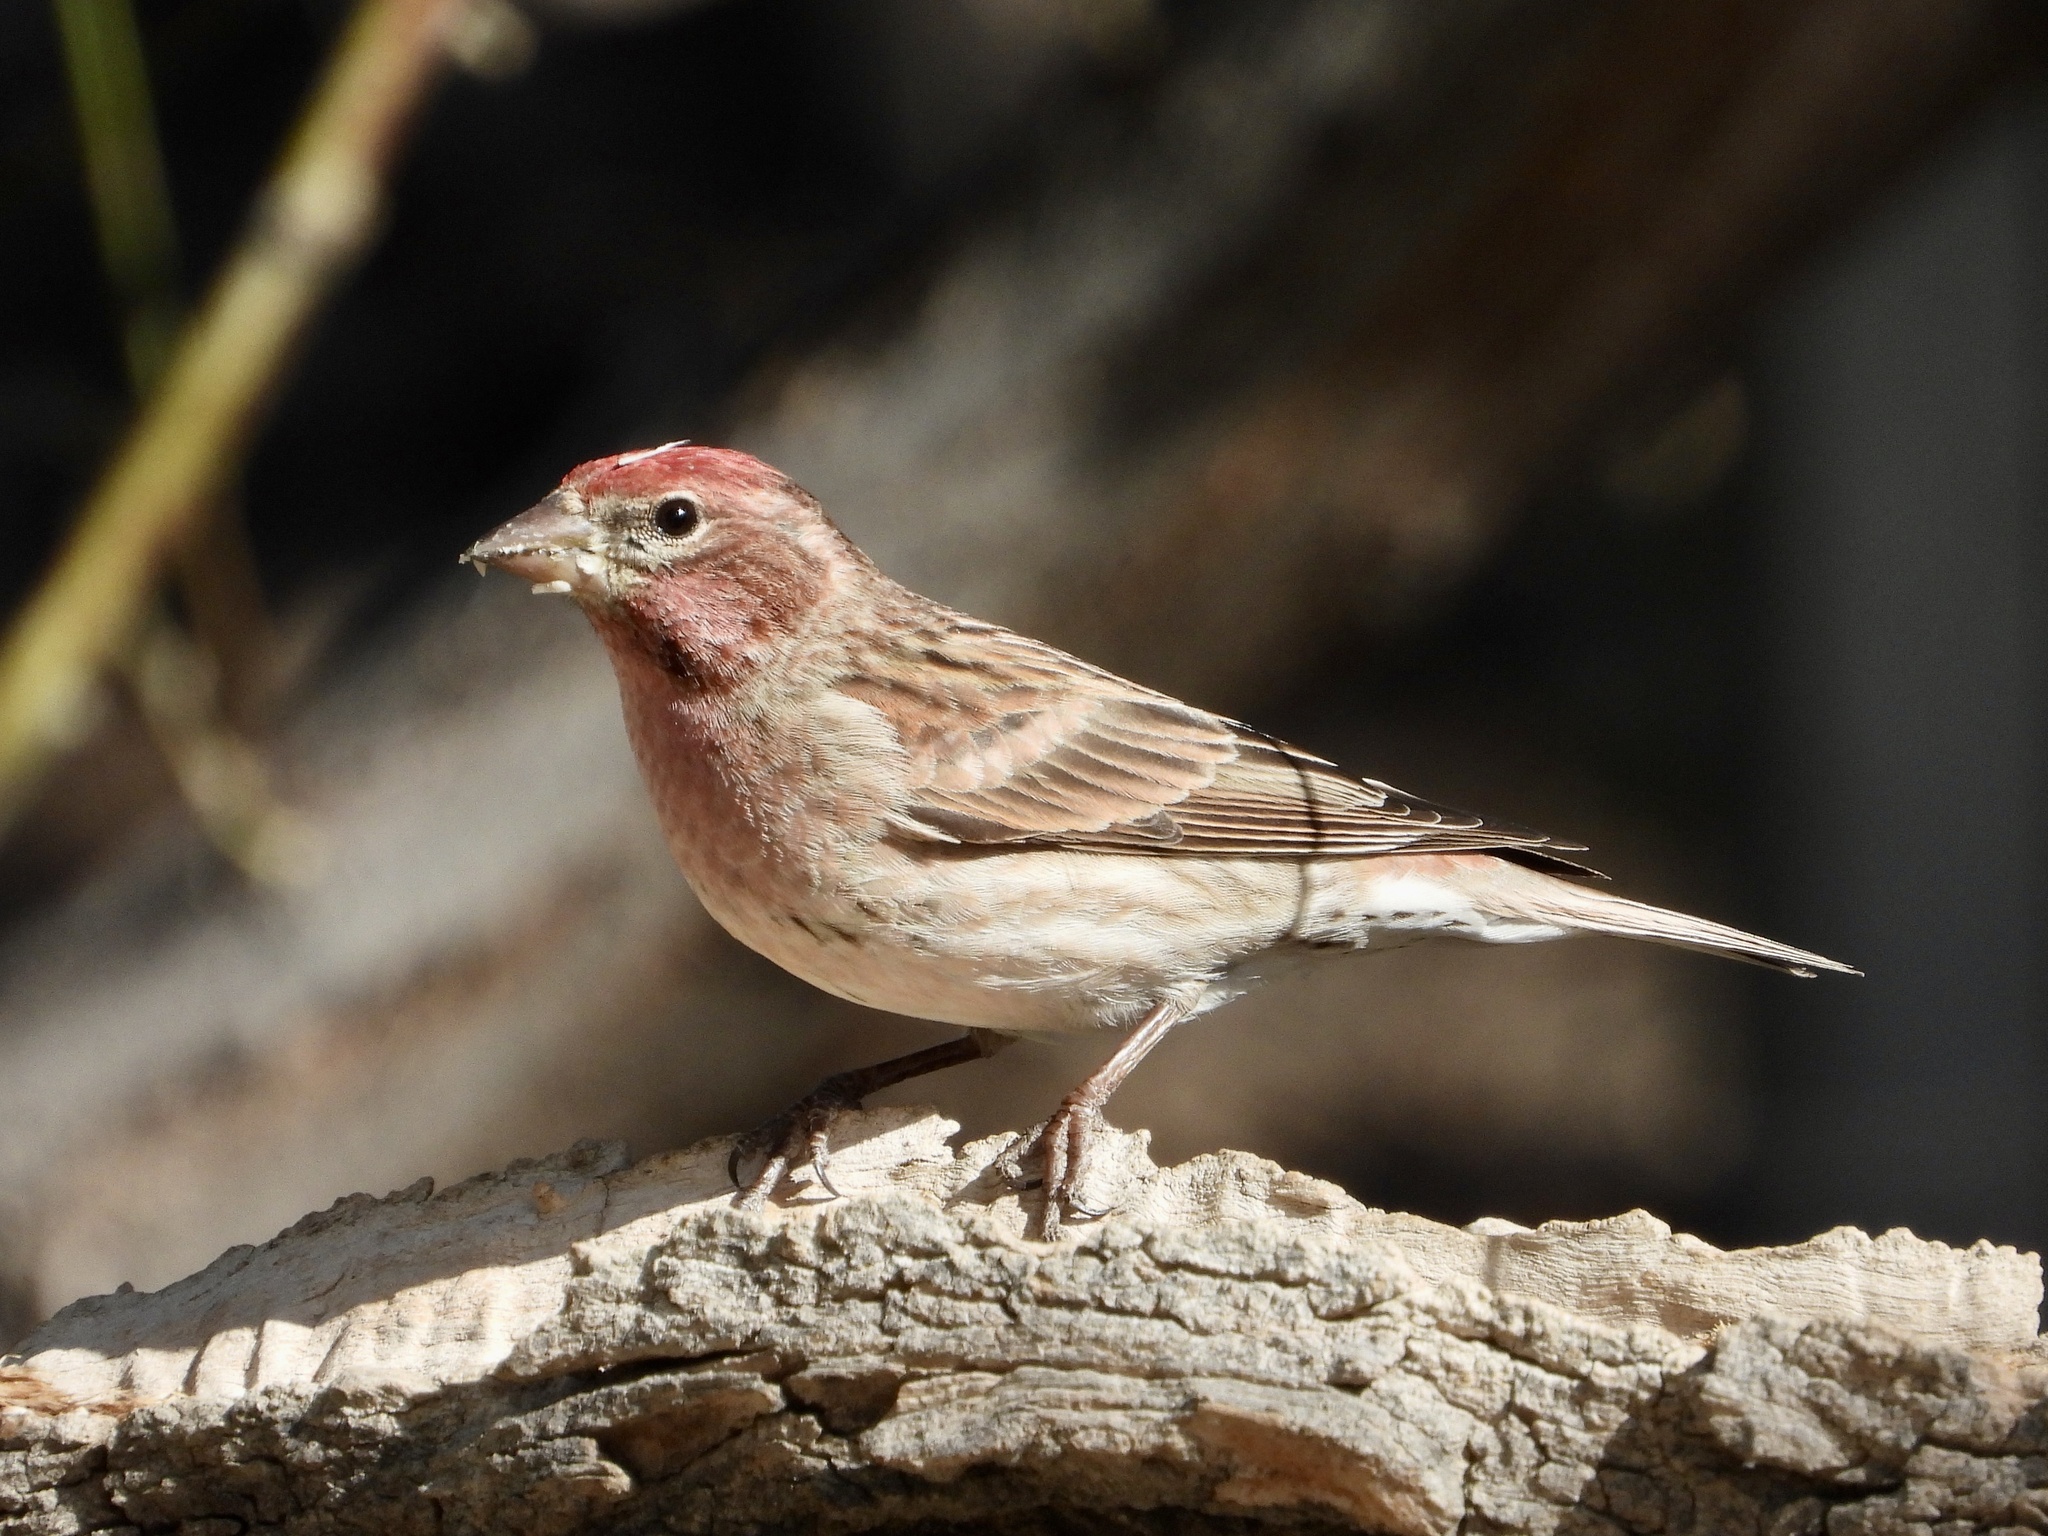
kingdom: Animalia
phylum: Chordata
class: Aves
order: Passeriformes
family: Fringillidae
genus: Haemorhous
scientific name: Haemorhous cassinii
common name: Cassin's finch
